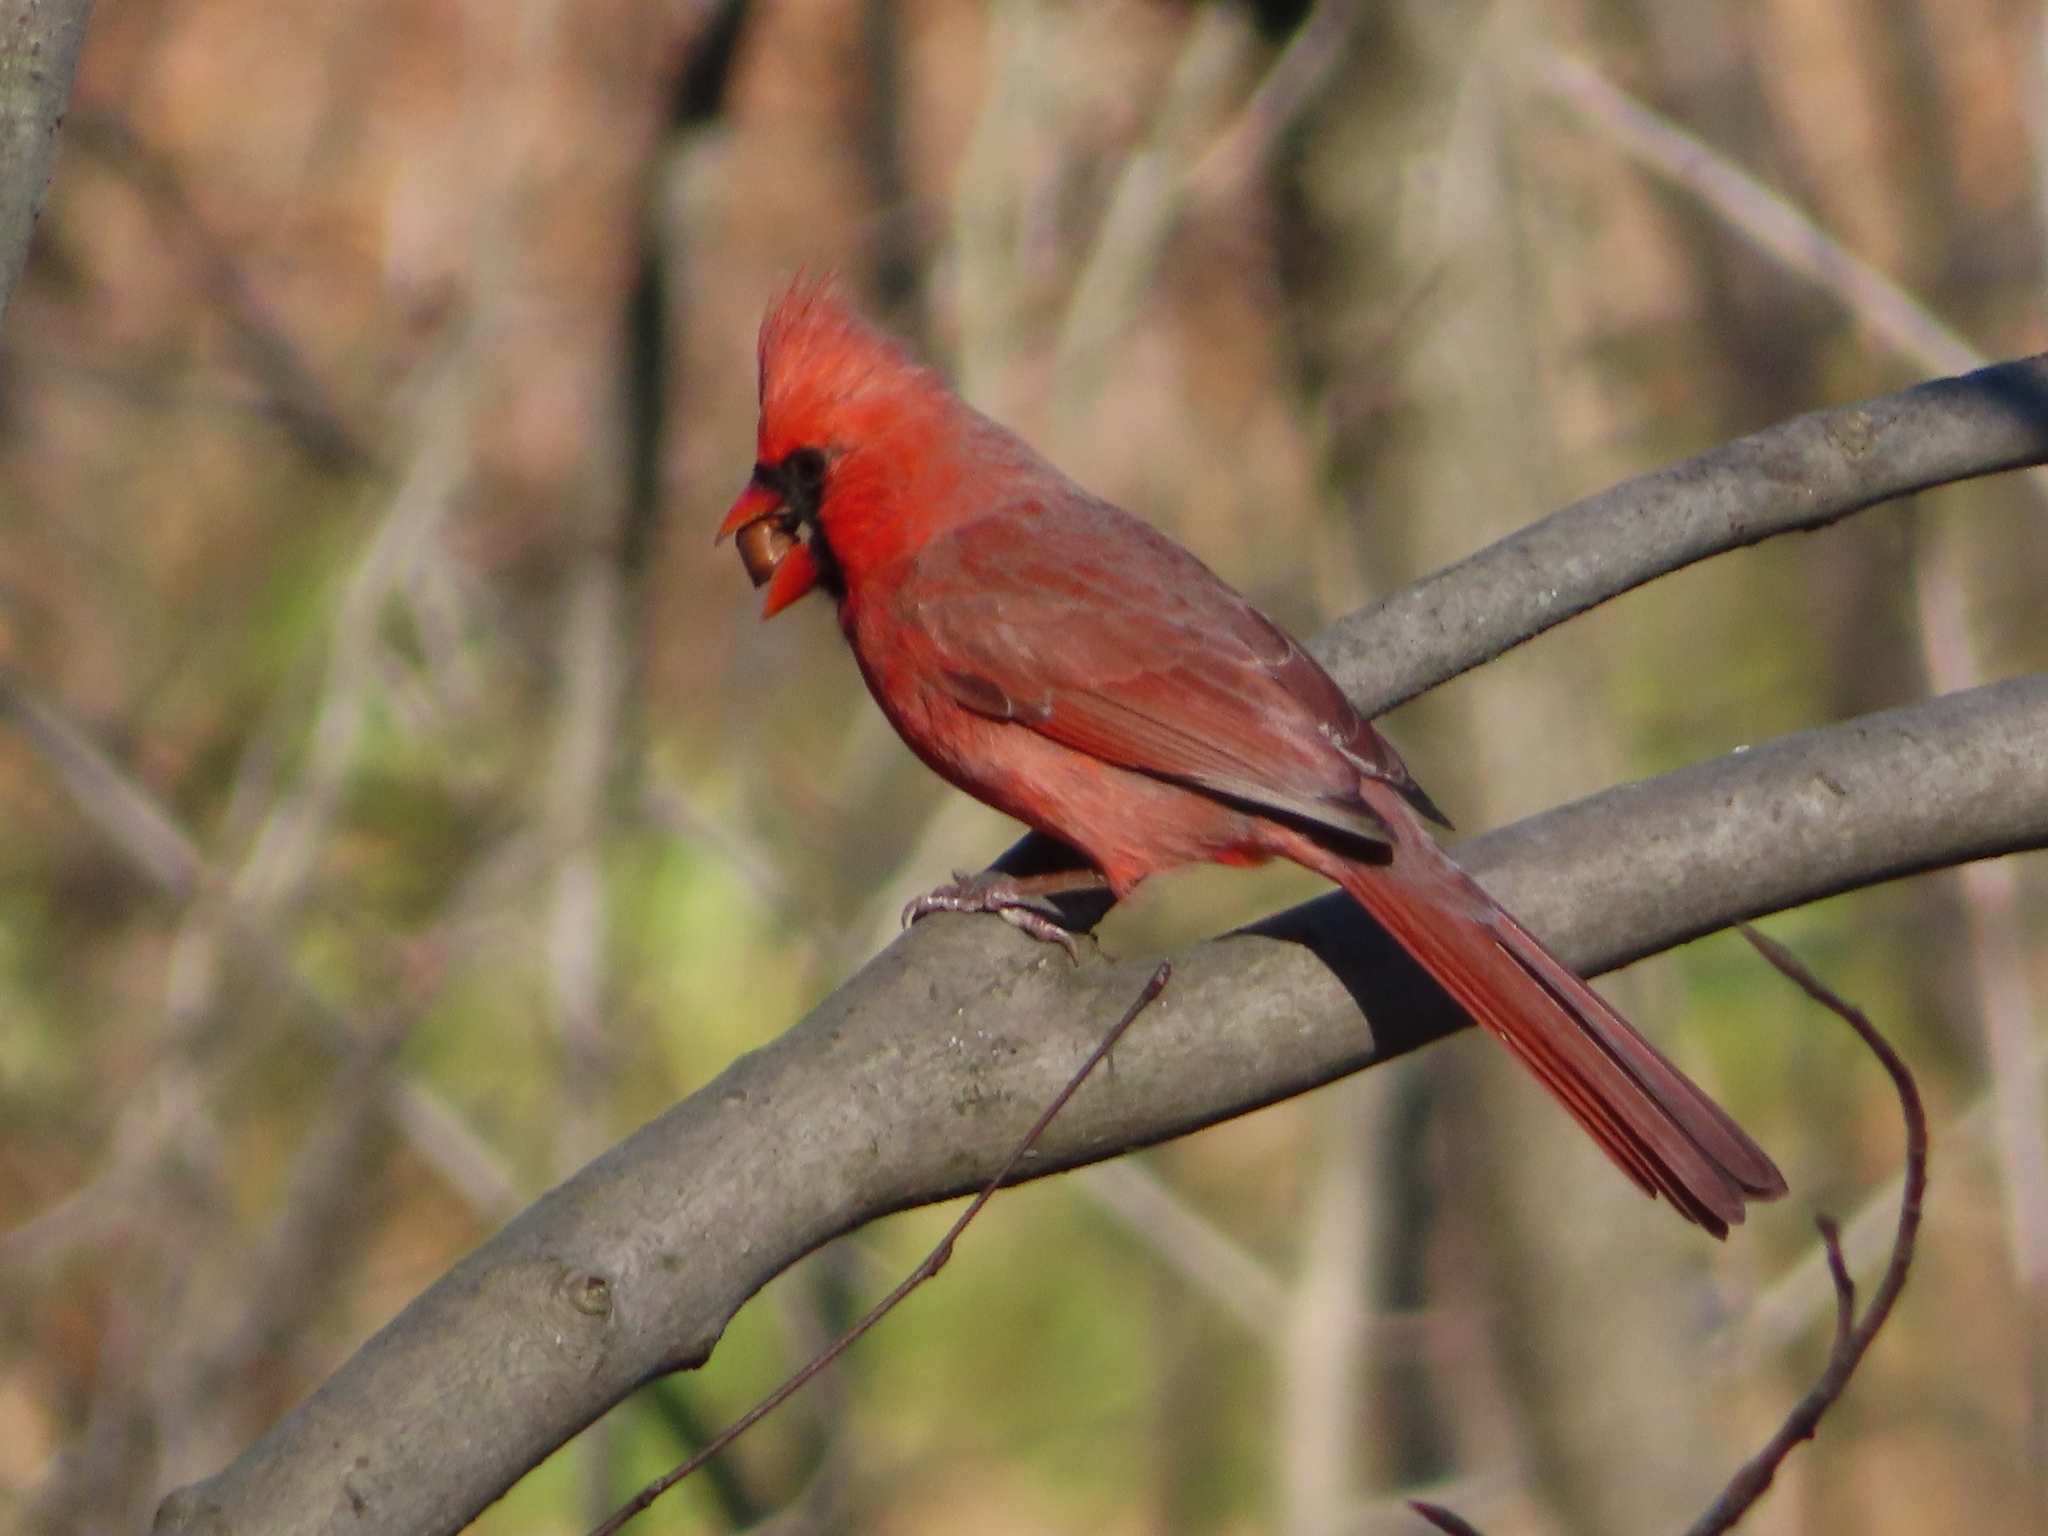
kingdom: Animalia
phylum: Chordata
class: Aves
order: Passeriformes
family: Cardinalidae
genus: Cardinalis
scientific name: Cardinalis cardinalis
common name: Northern cardinal
